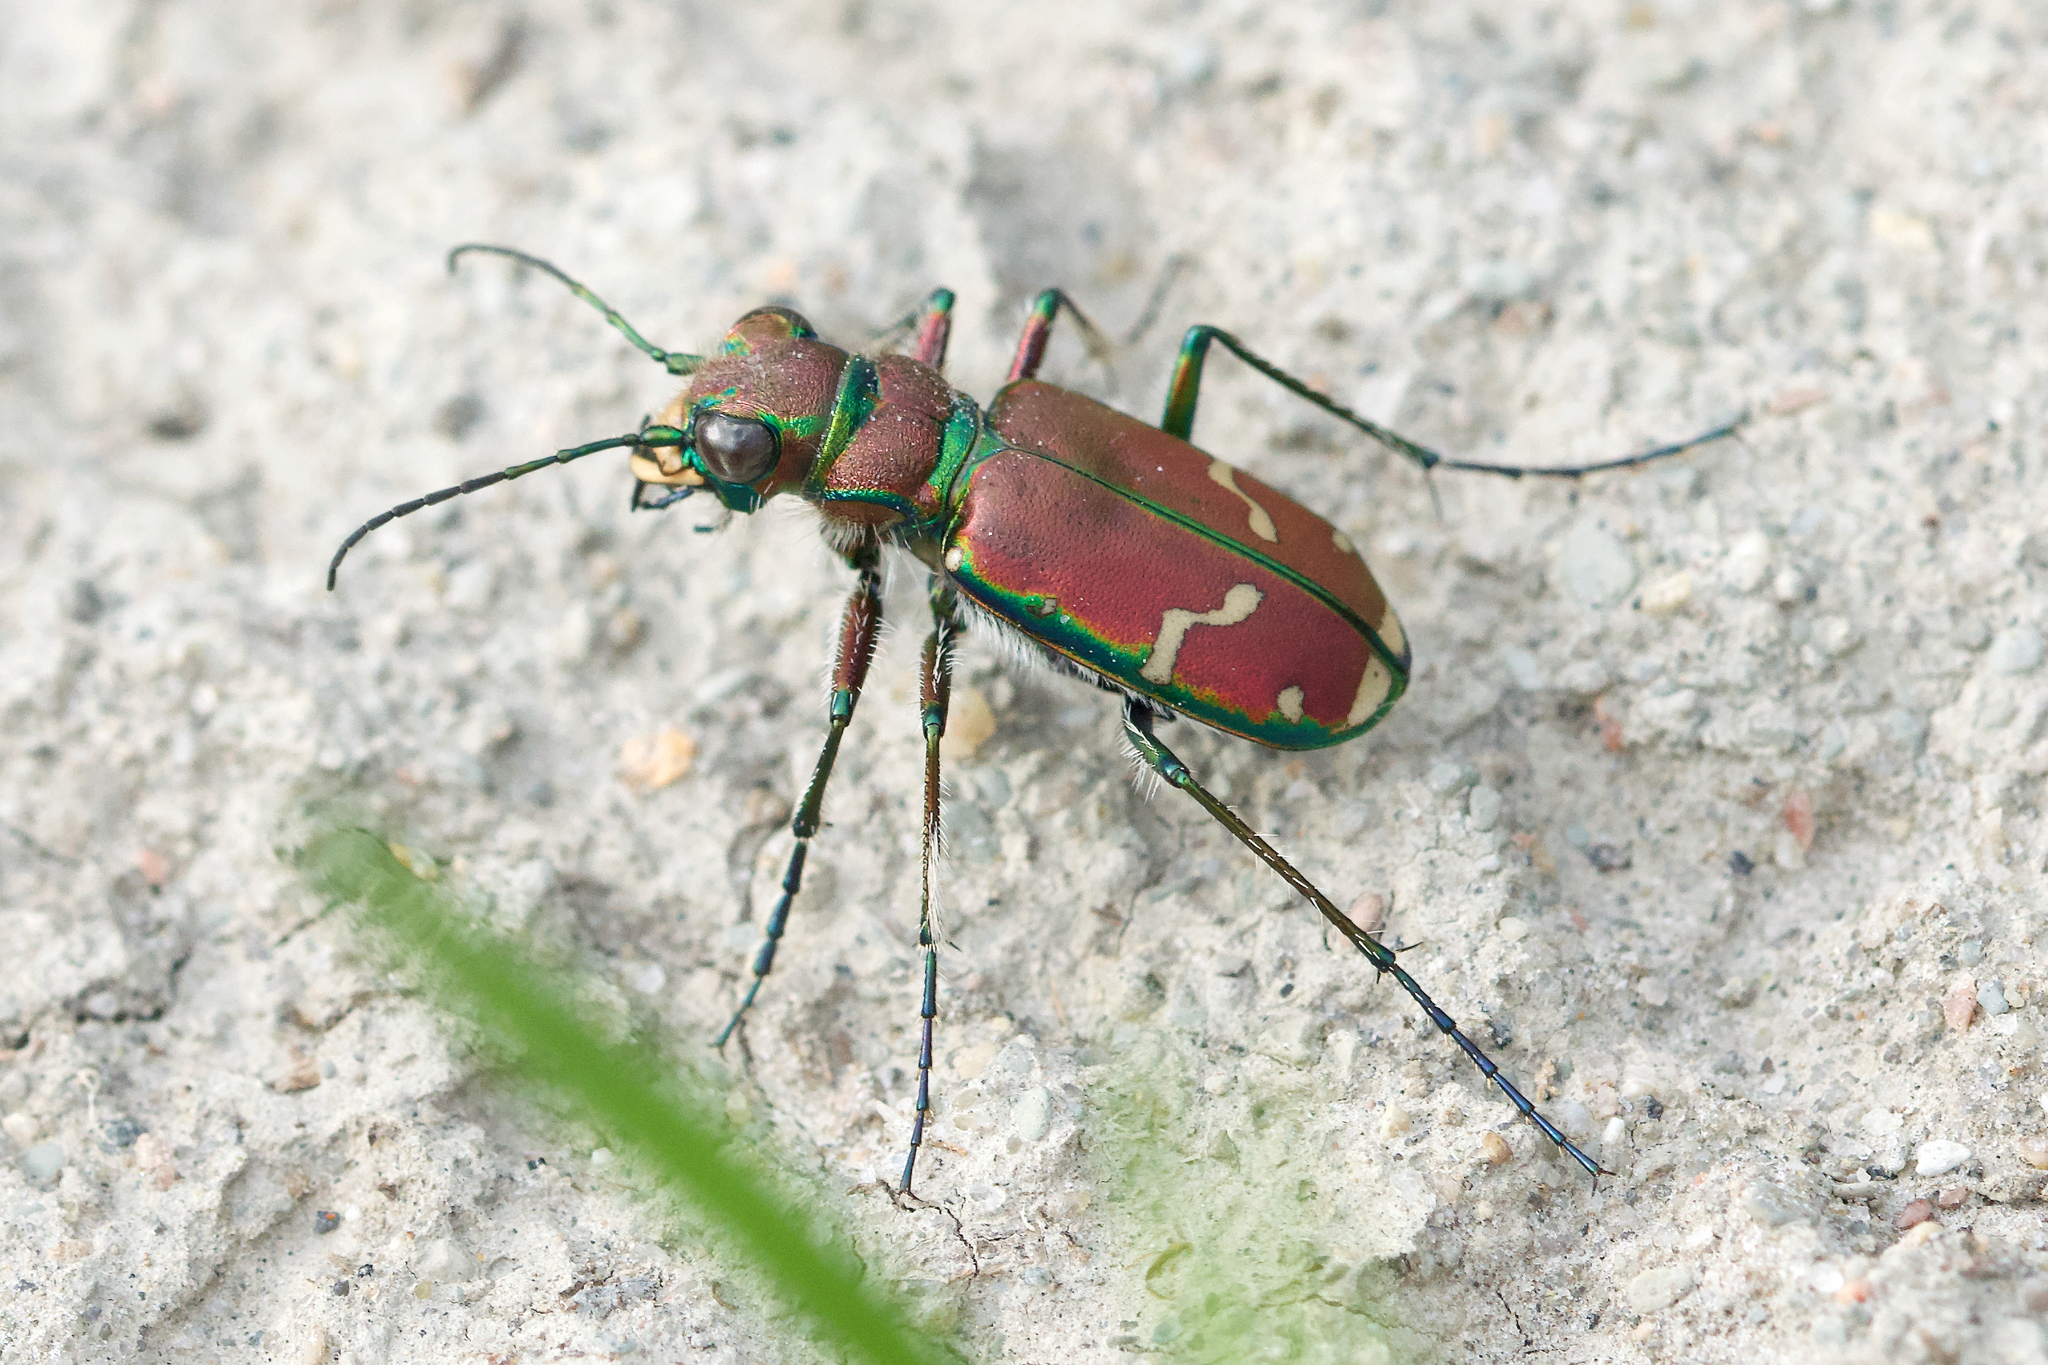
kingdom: Animalia
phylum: Arthropoda
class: Insecta
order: Coleoptera
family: Carabidae
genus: Cicindela
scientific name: Cicindela limbalis
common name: Common claybank tiger beetle
